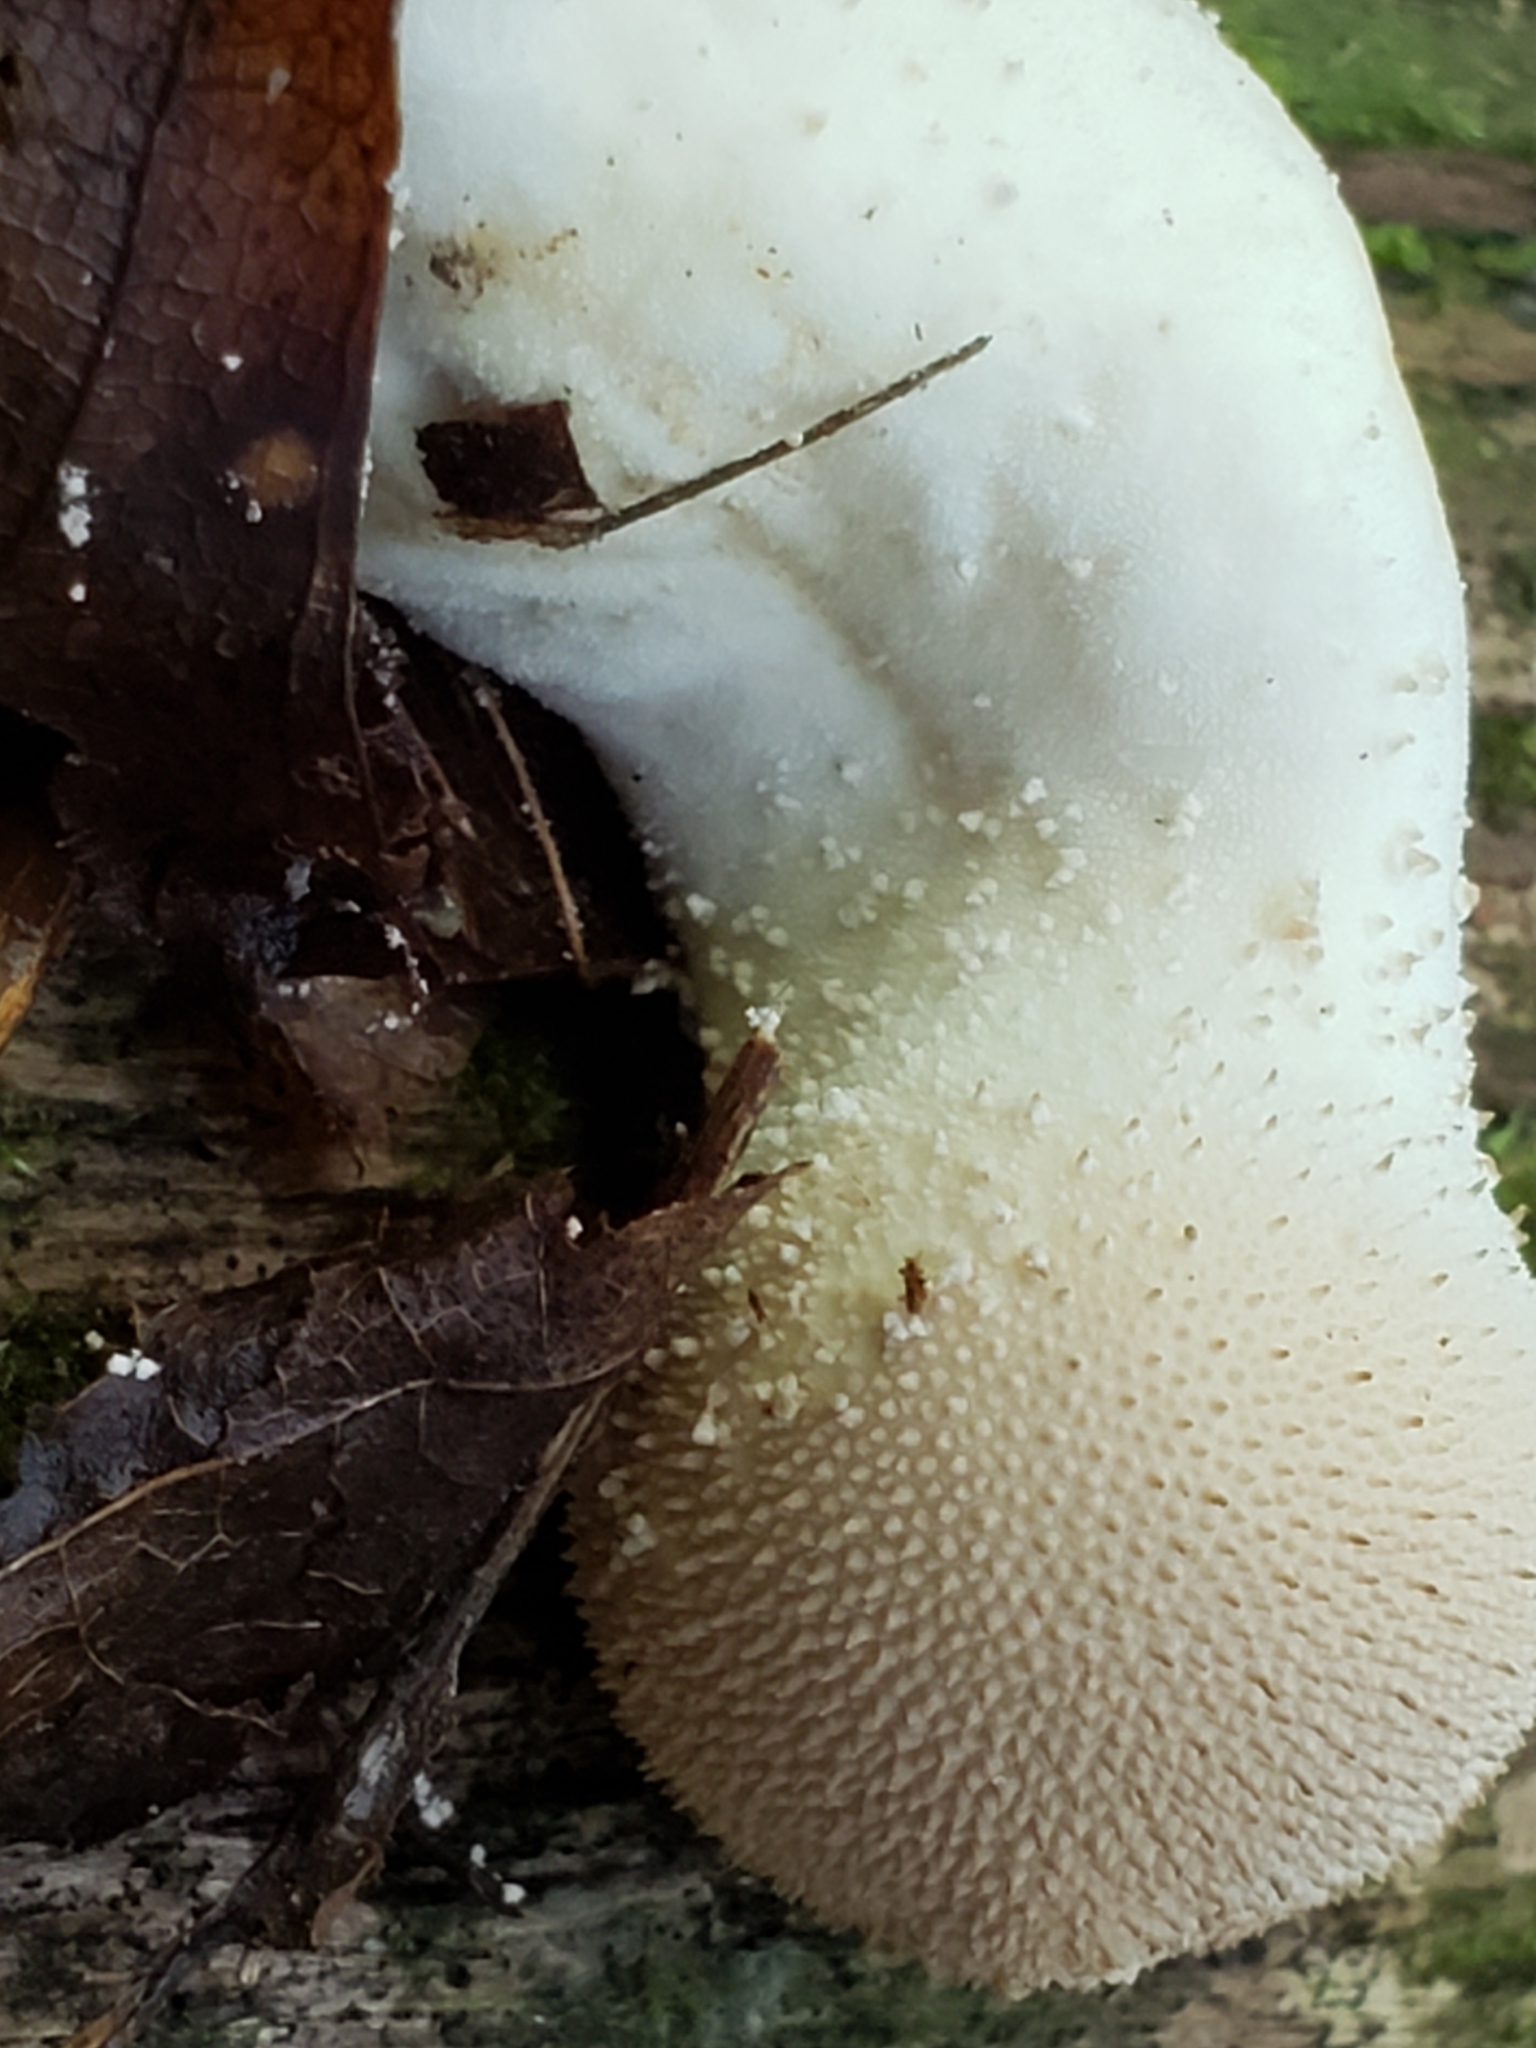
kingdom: Fungi
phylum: Basidiomycota
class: Agaricomycetes
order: Agaricales
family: Lycoperdaceae
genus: Lycoperdon
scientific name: Lycoperdon perlatum
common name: Common puffball
